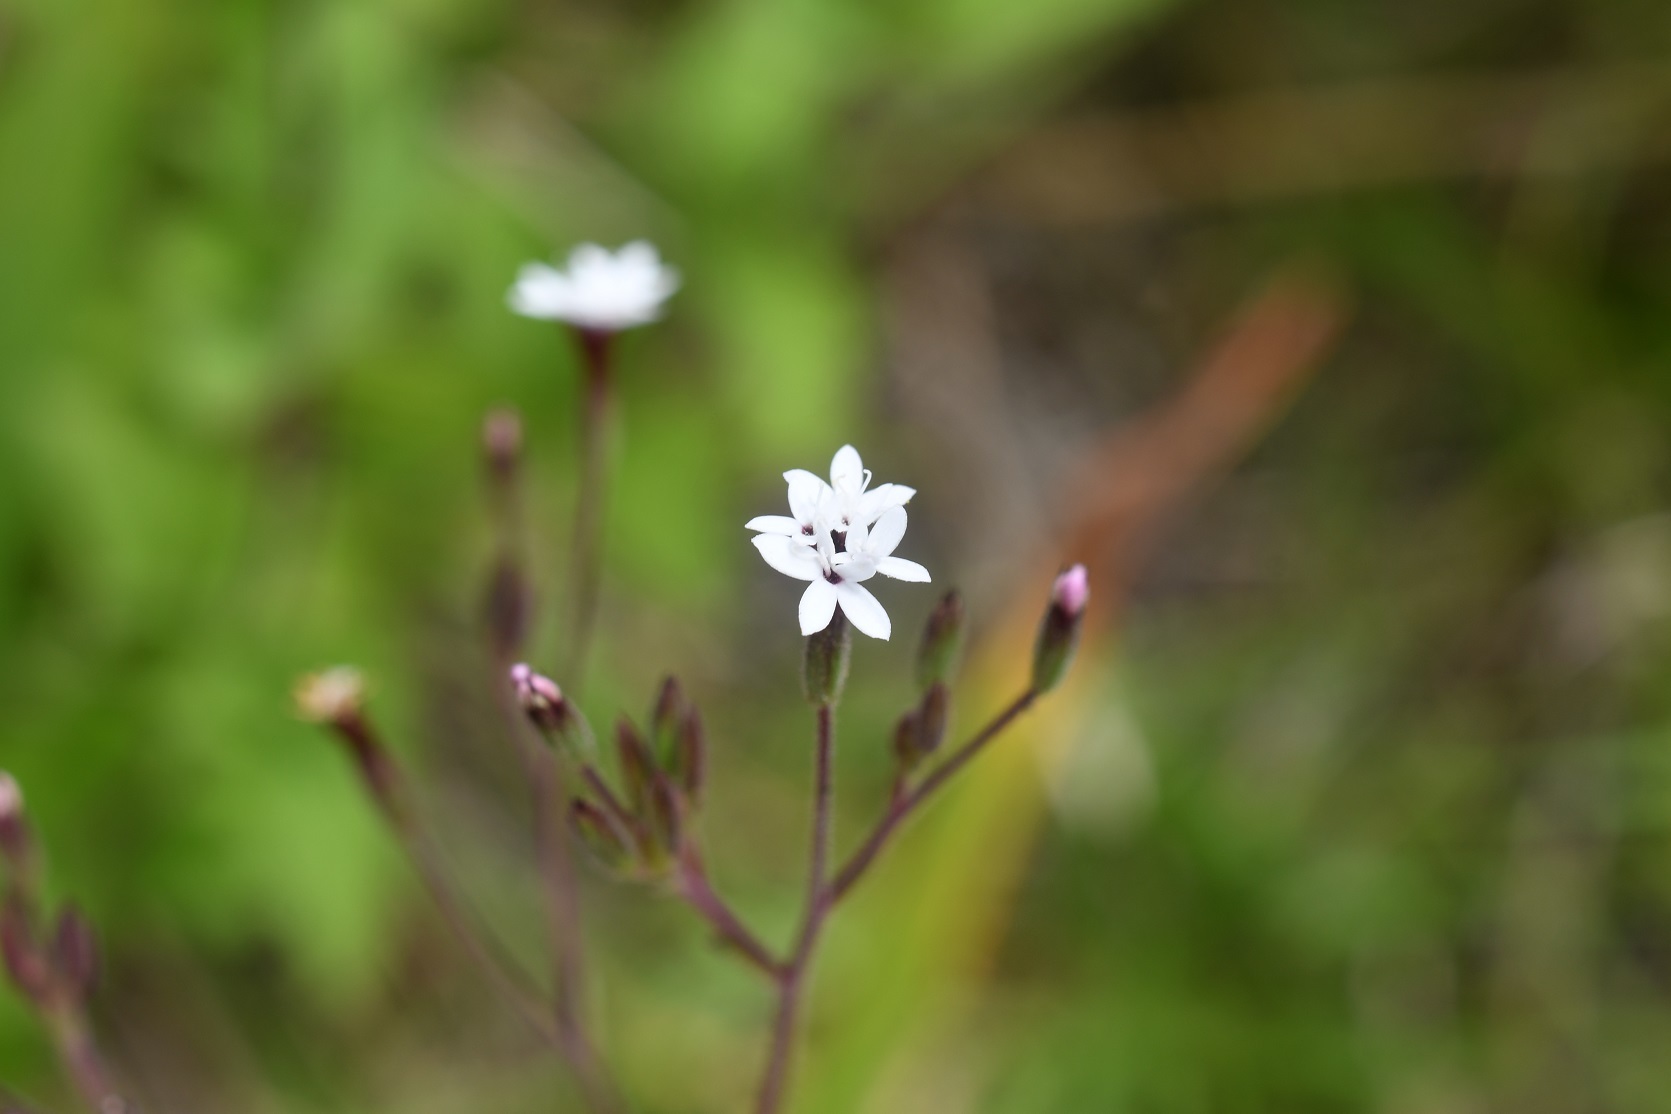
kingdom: Plantae
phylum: Tracheophyta
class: Magnoliopsida
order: Asterales
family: Asteraceae
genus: Stevia
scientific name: Stevia elatior
